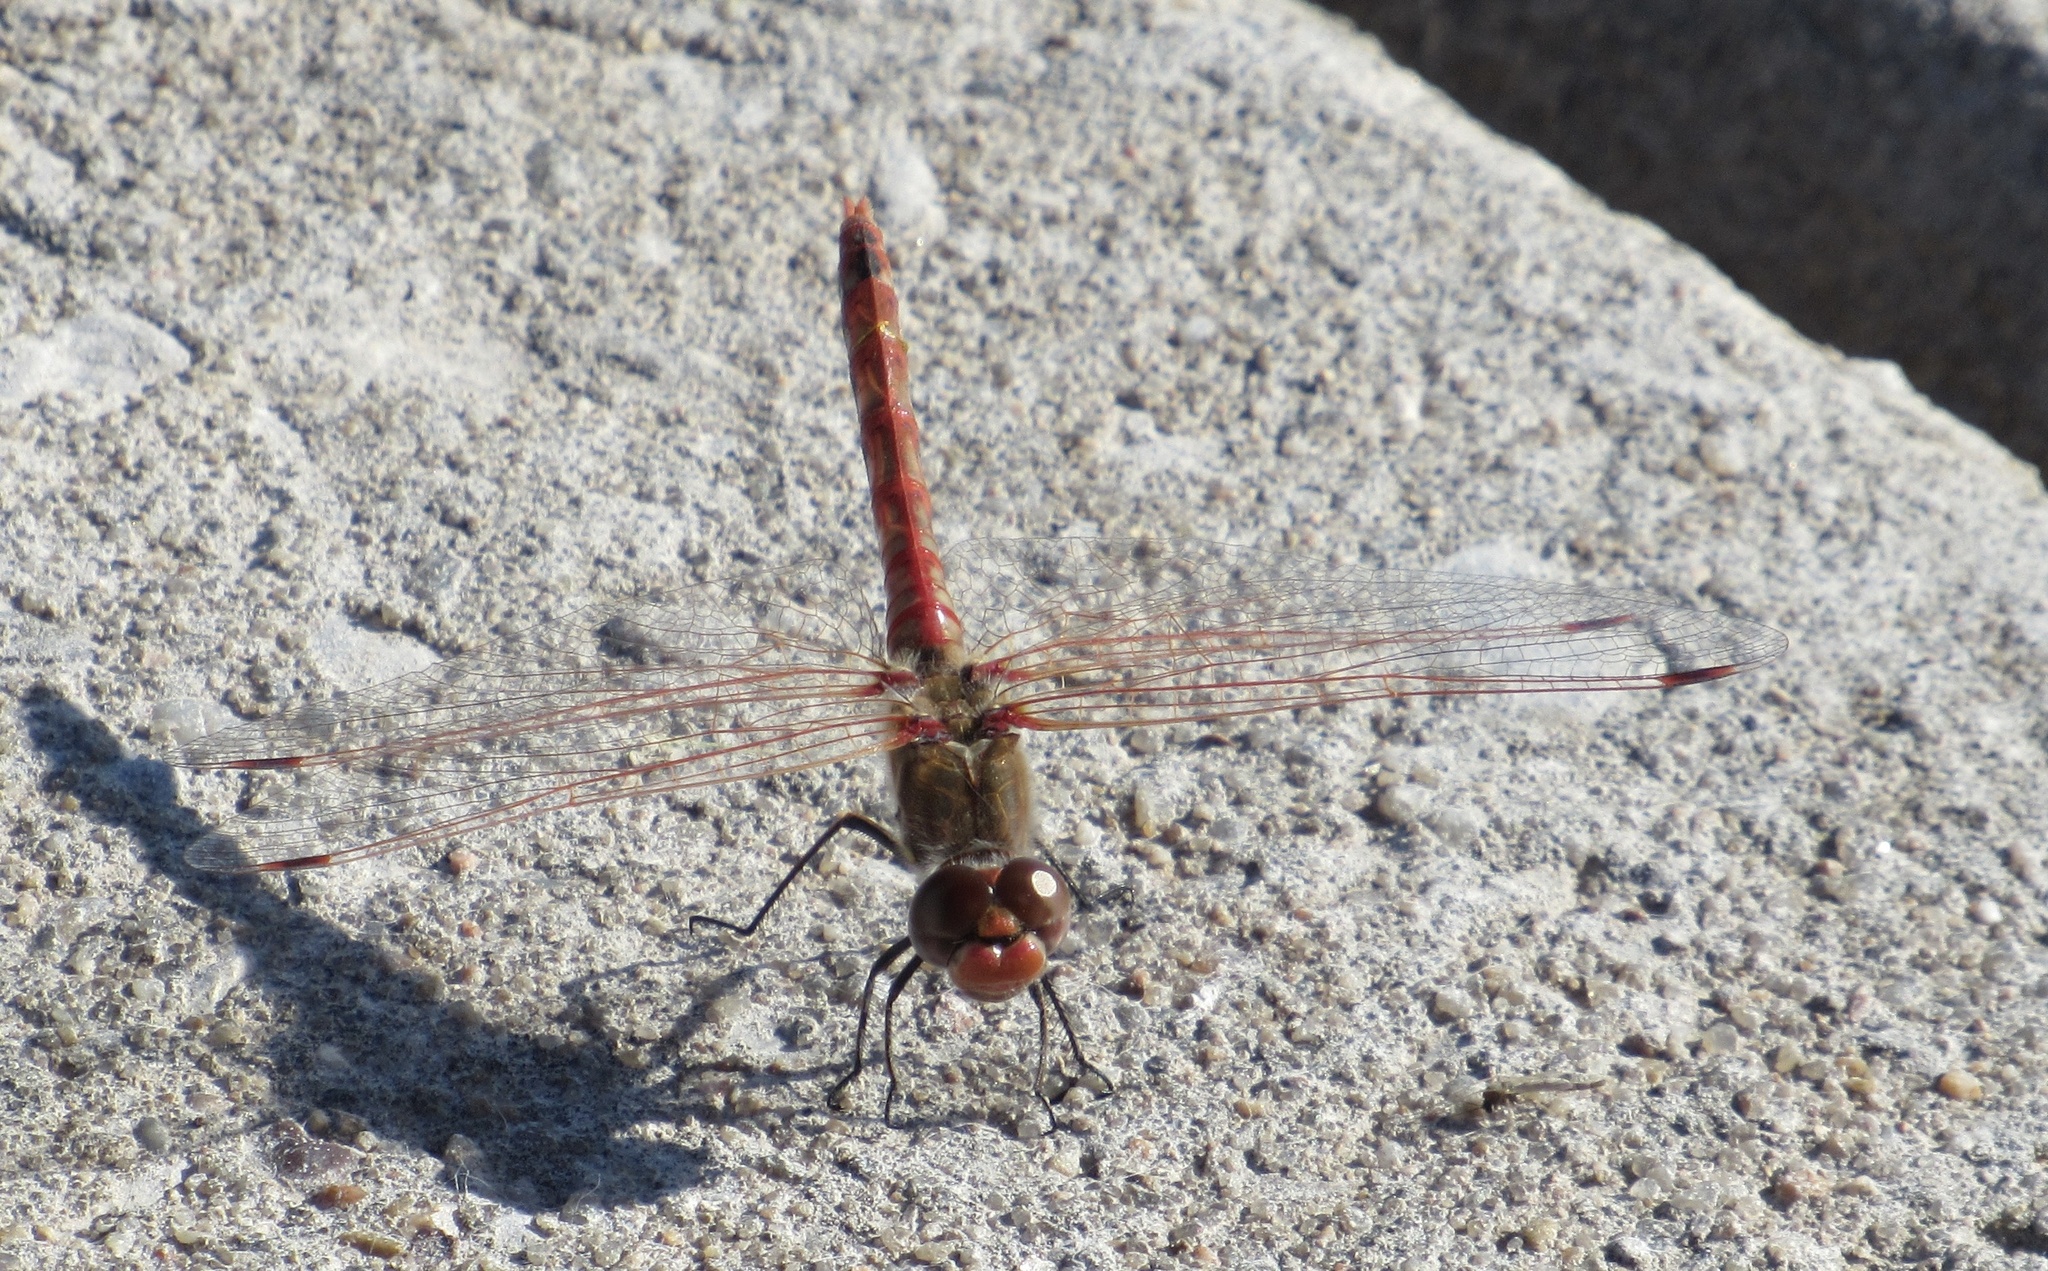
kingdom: Animalia
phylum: Arthropoda
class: Insecta
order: Odonata
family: Libellulidae
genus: Sympetrum
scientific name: Sympetrum corruptum
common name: Variegated meadowhawk
